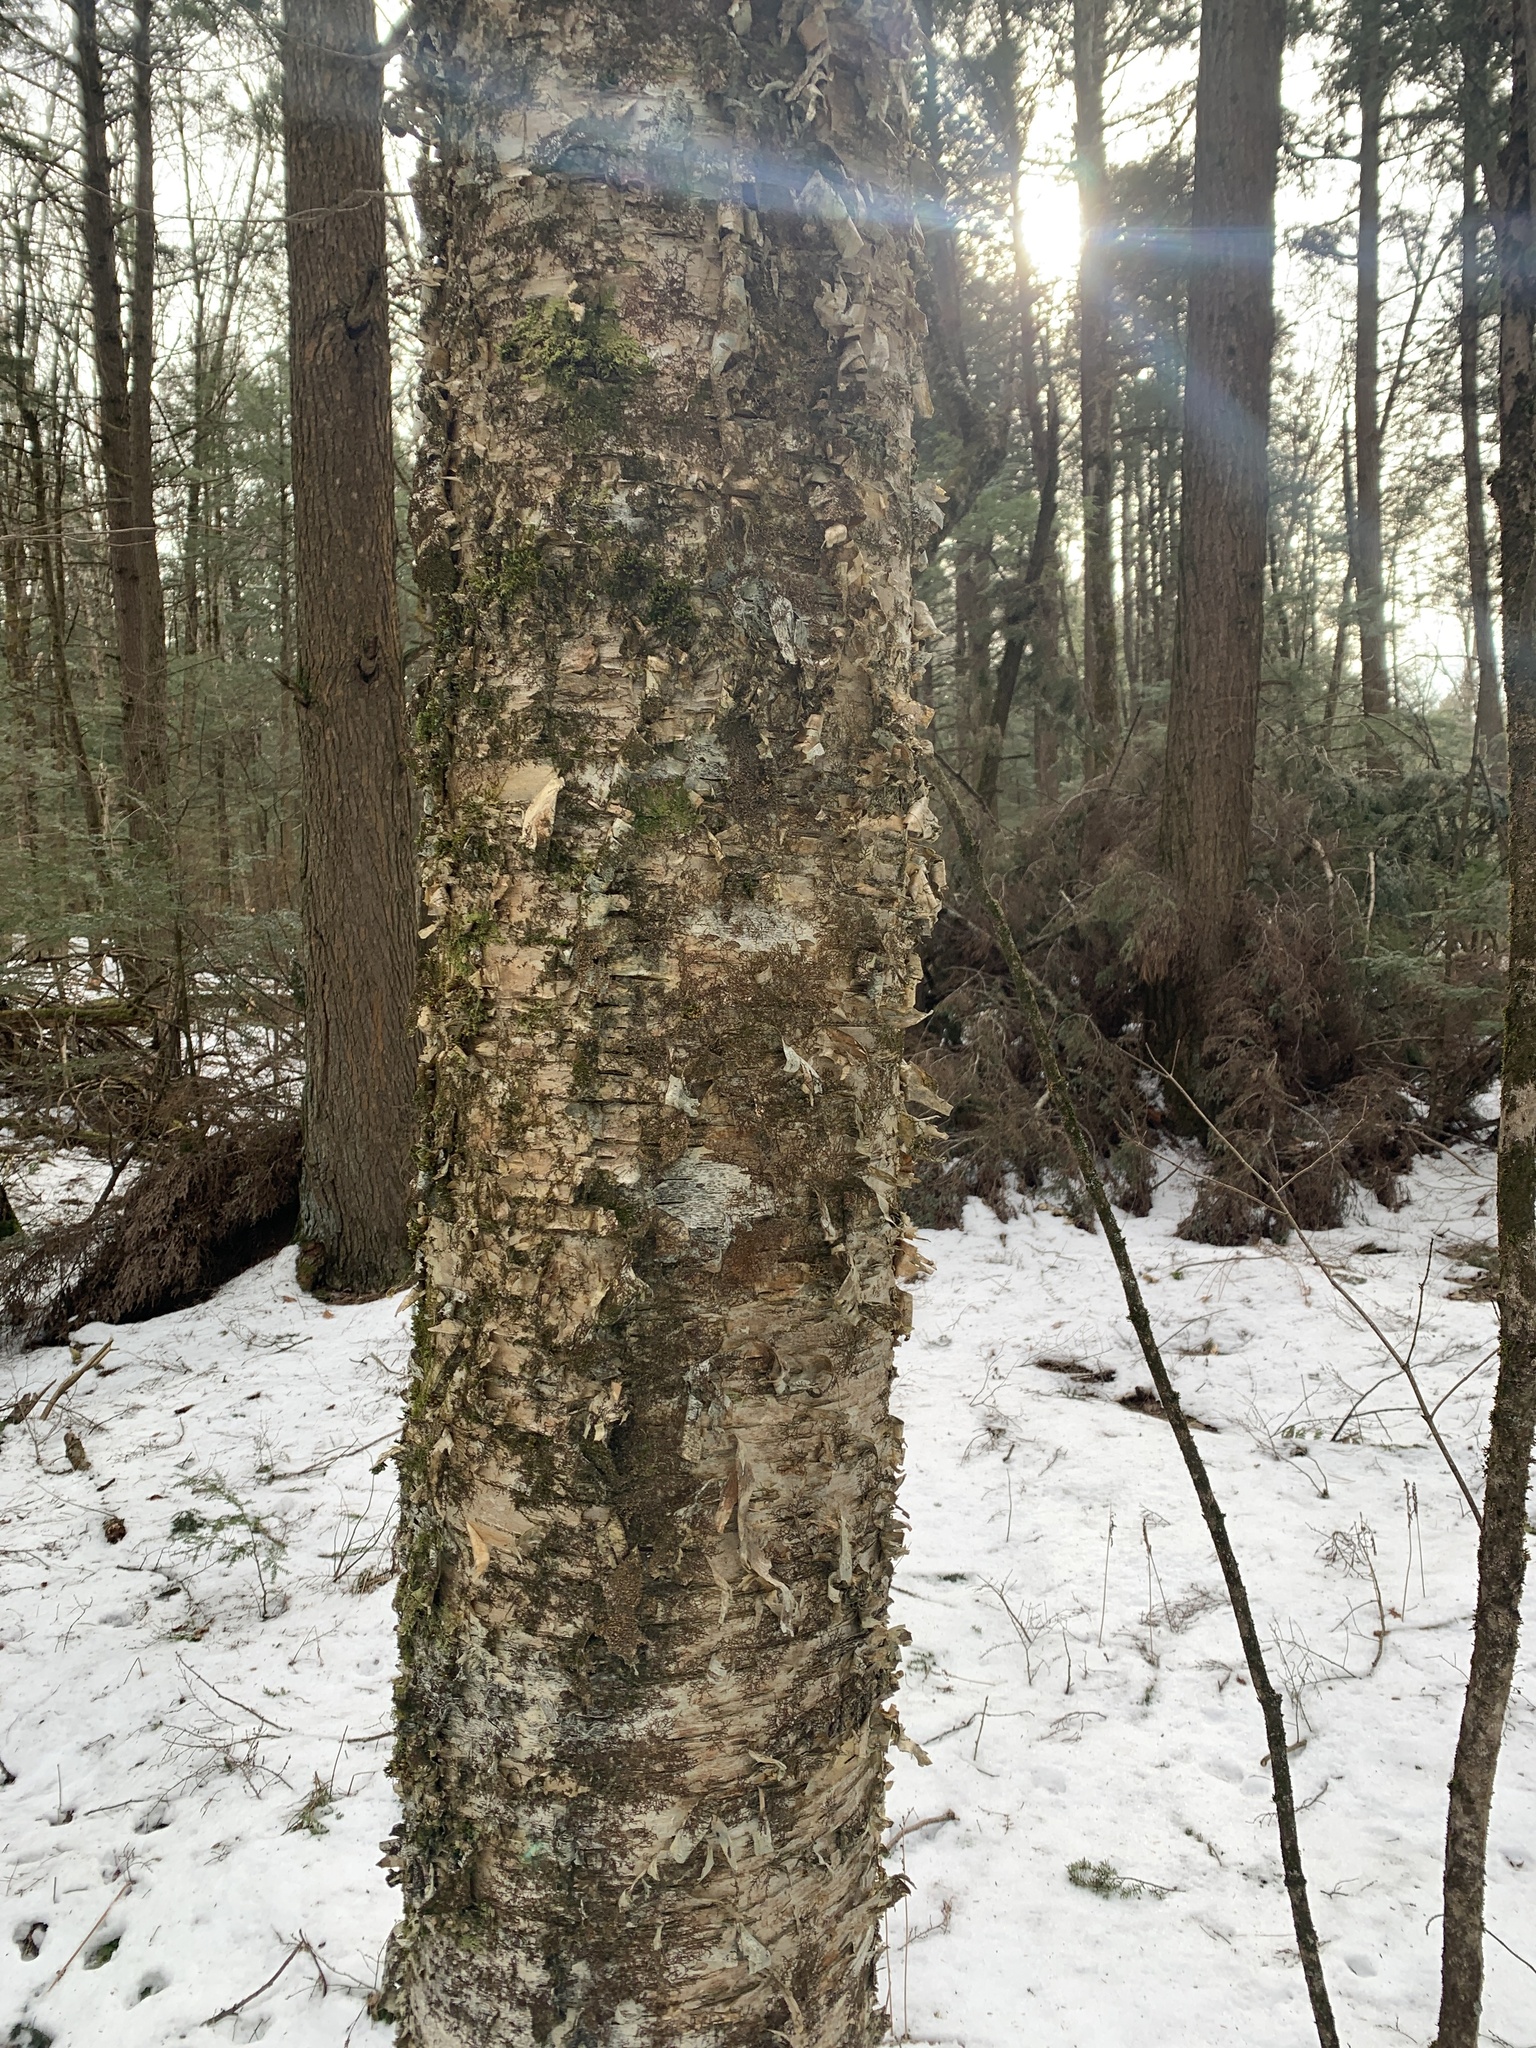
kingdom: Plantae
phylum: Tracheophyta
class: Magnoliopsida
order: Fagales
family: Betulaceae
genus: Betula
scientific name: Betula alleghaniensis
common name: Yellow birch
